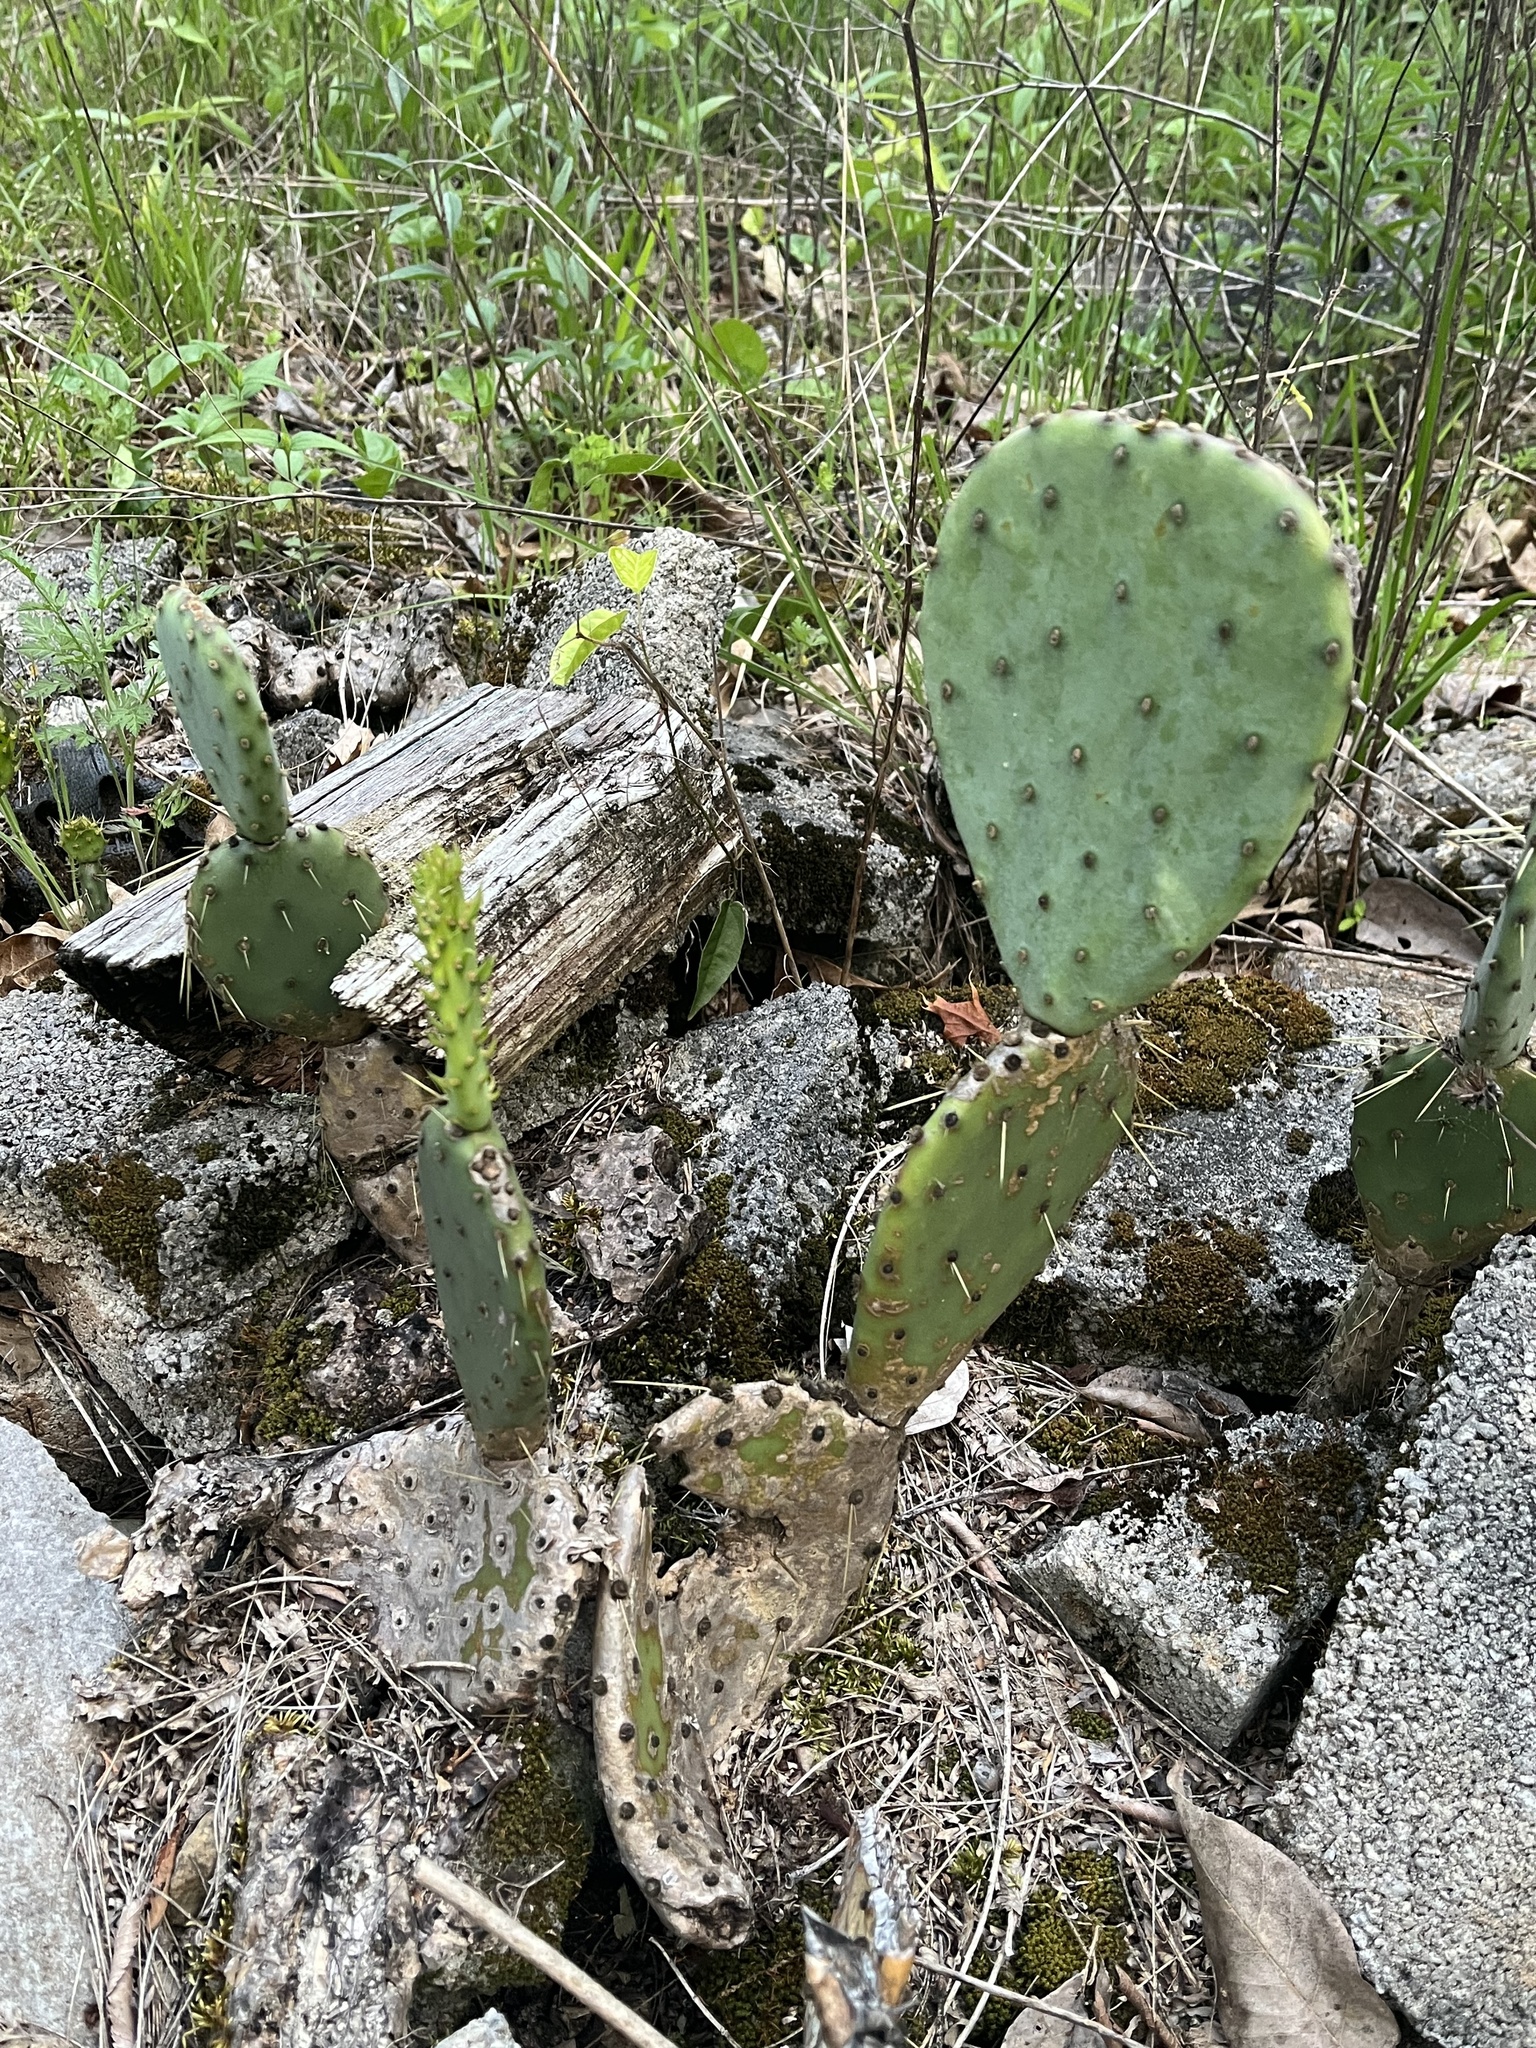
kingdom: Plantae
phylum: Tracheophyta
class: Magnoliopsida
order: Caryophyllales
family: Cactaceae
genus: Opuntia
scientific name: Opuntia humifusa
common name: Eastern prickly-pear
